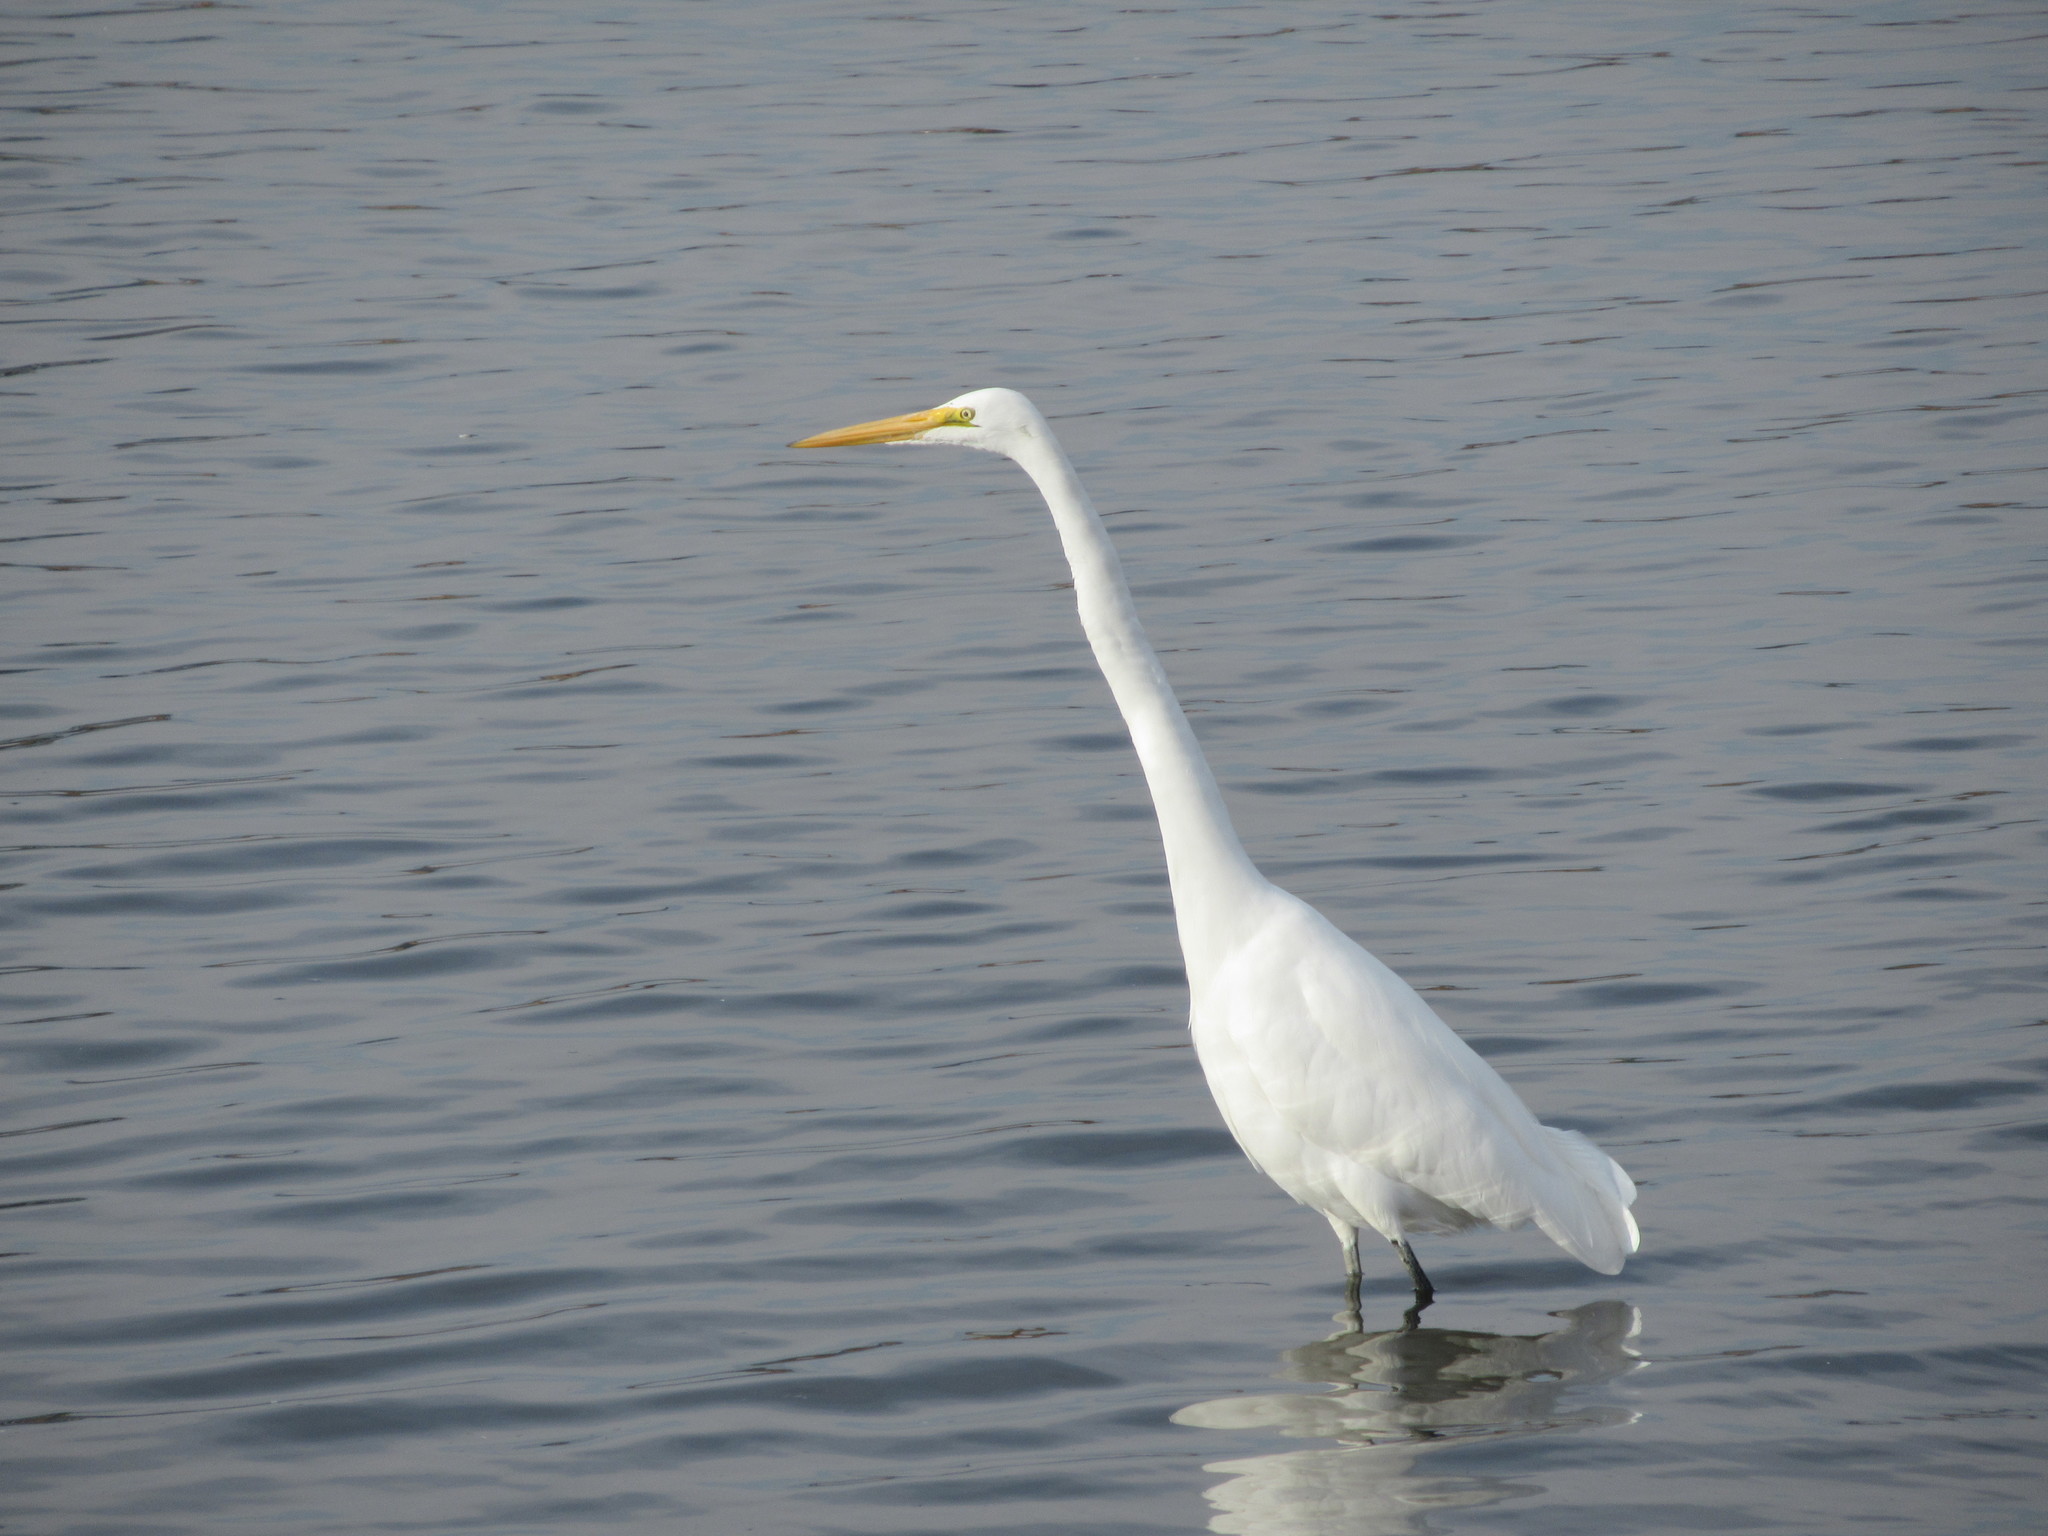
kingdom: Animalia
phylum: Chordata
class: Aves
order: Pelecaniformes
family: Ardeidae
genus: Ardea
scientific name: Ardea alba
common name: Great egret
